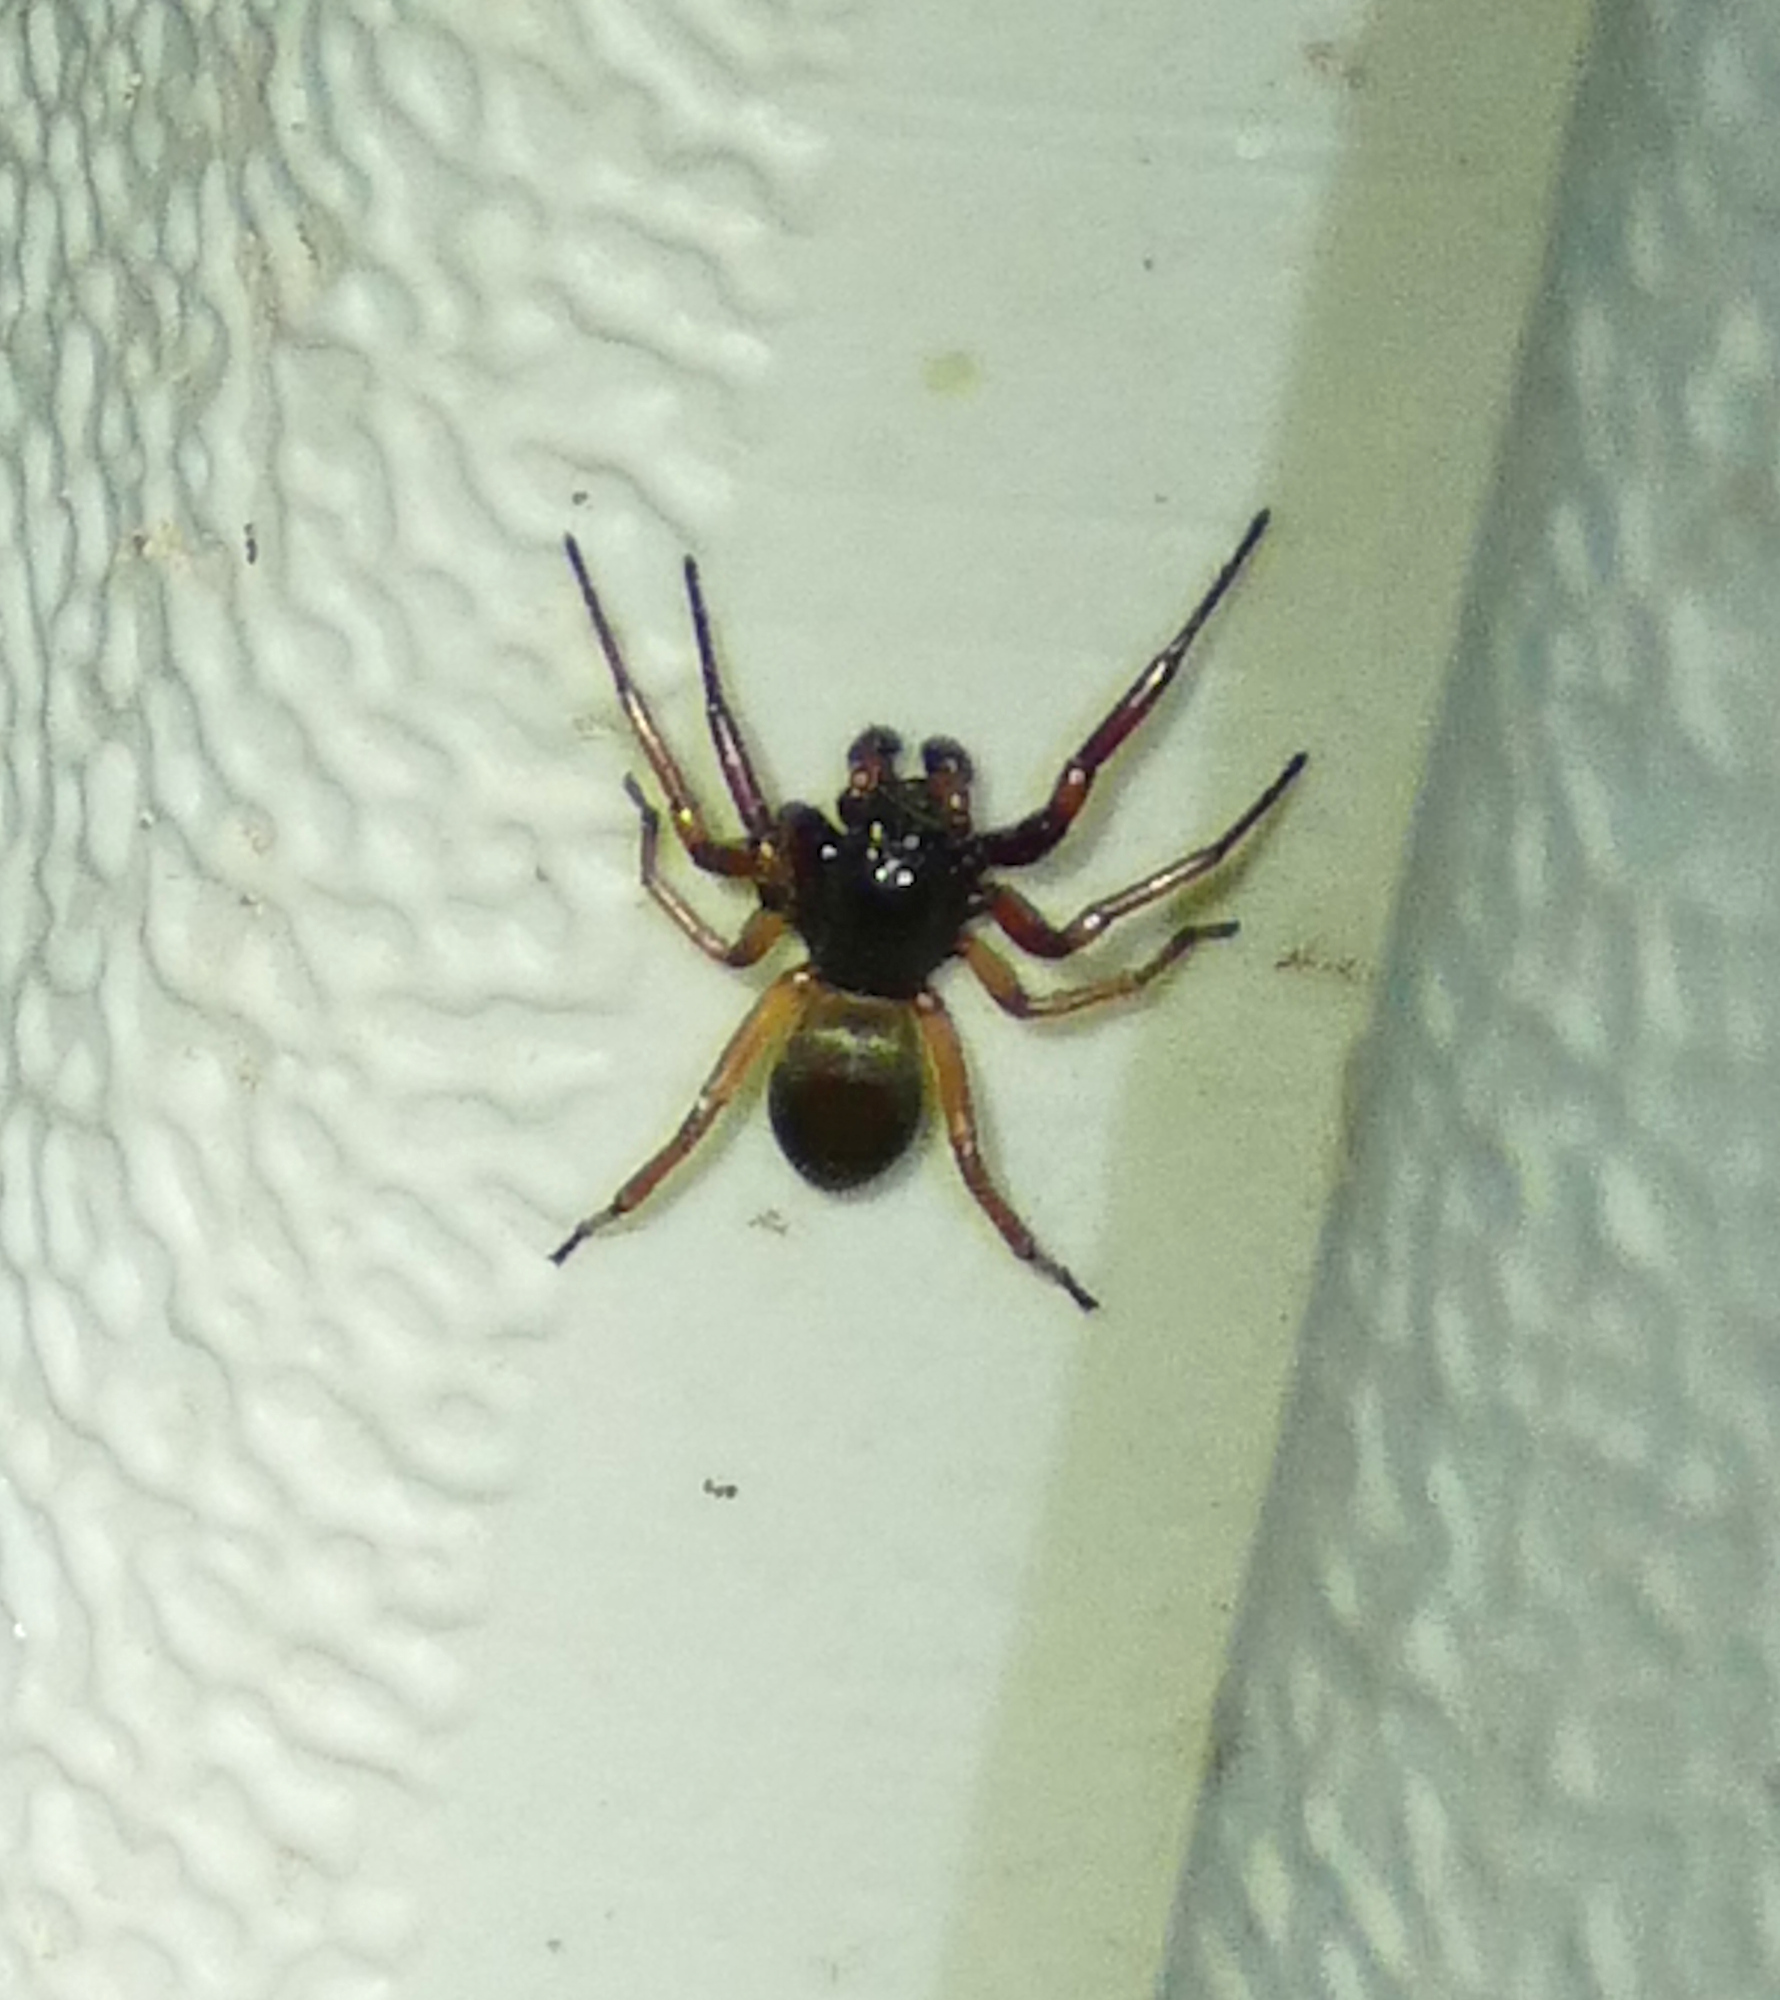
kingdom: Animalia
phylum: Arthropoda
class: Arachnida
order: Araneae
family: Trachelidae
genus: Trachelas
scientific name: Trachelas
